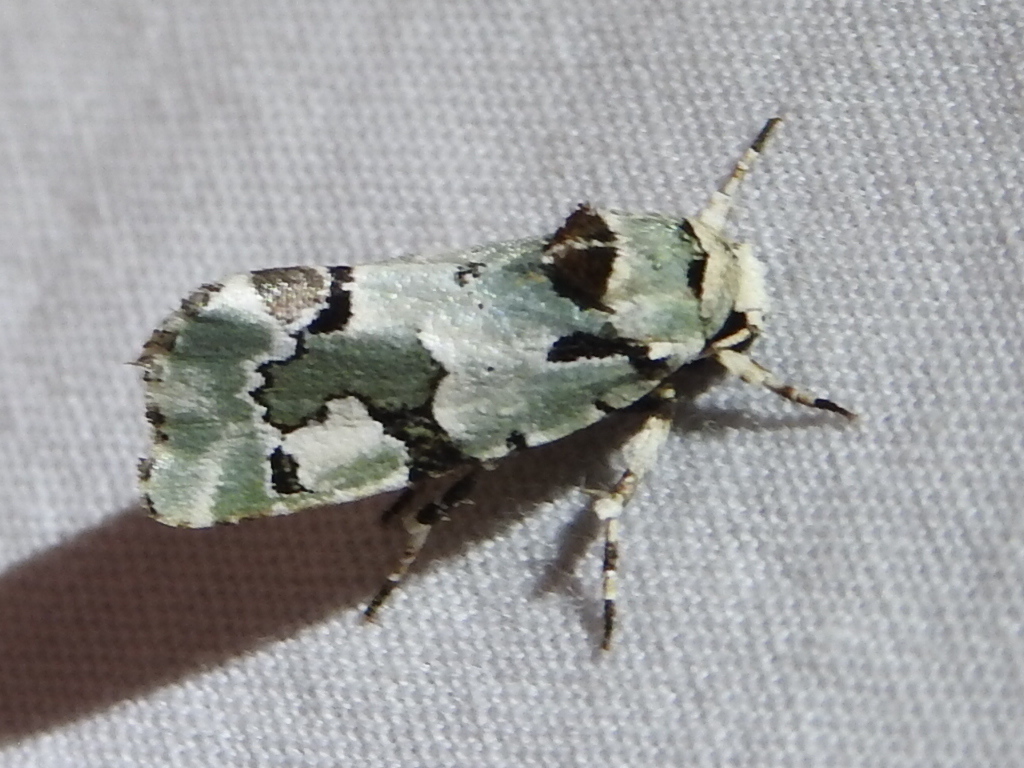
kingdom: Animalia
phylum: Arthropoda
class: Insecta
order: Lepidoptera
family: Noctuidae
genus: Emarginea
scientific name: Emarginea percara
